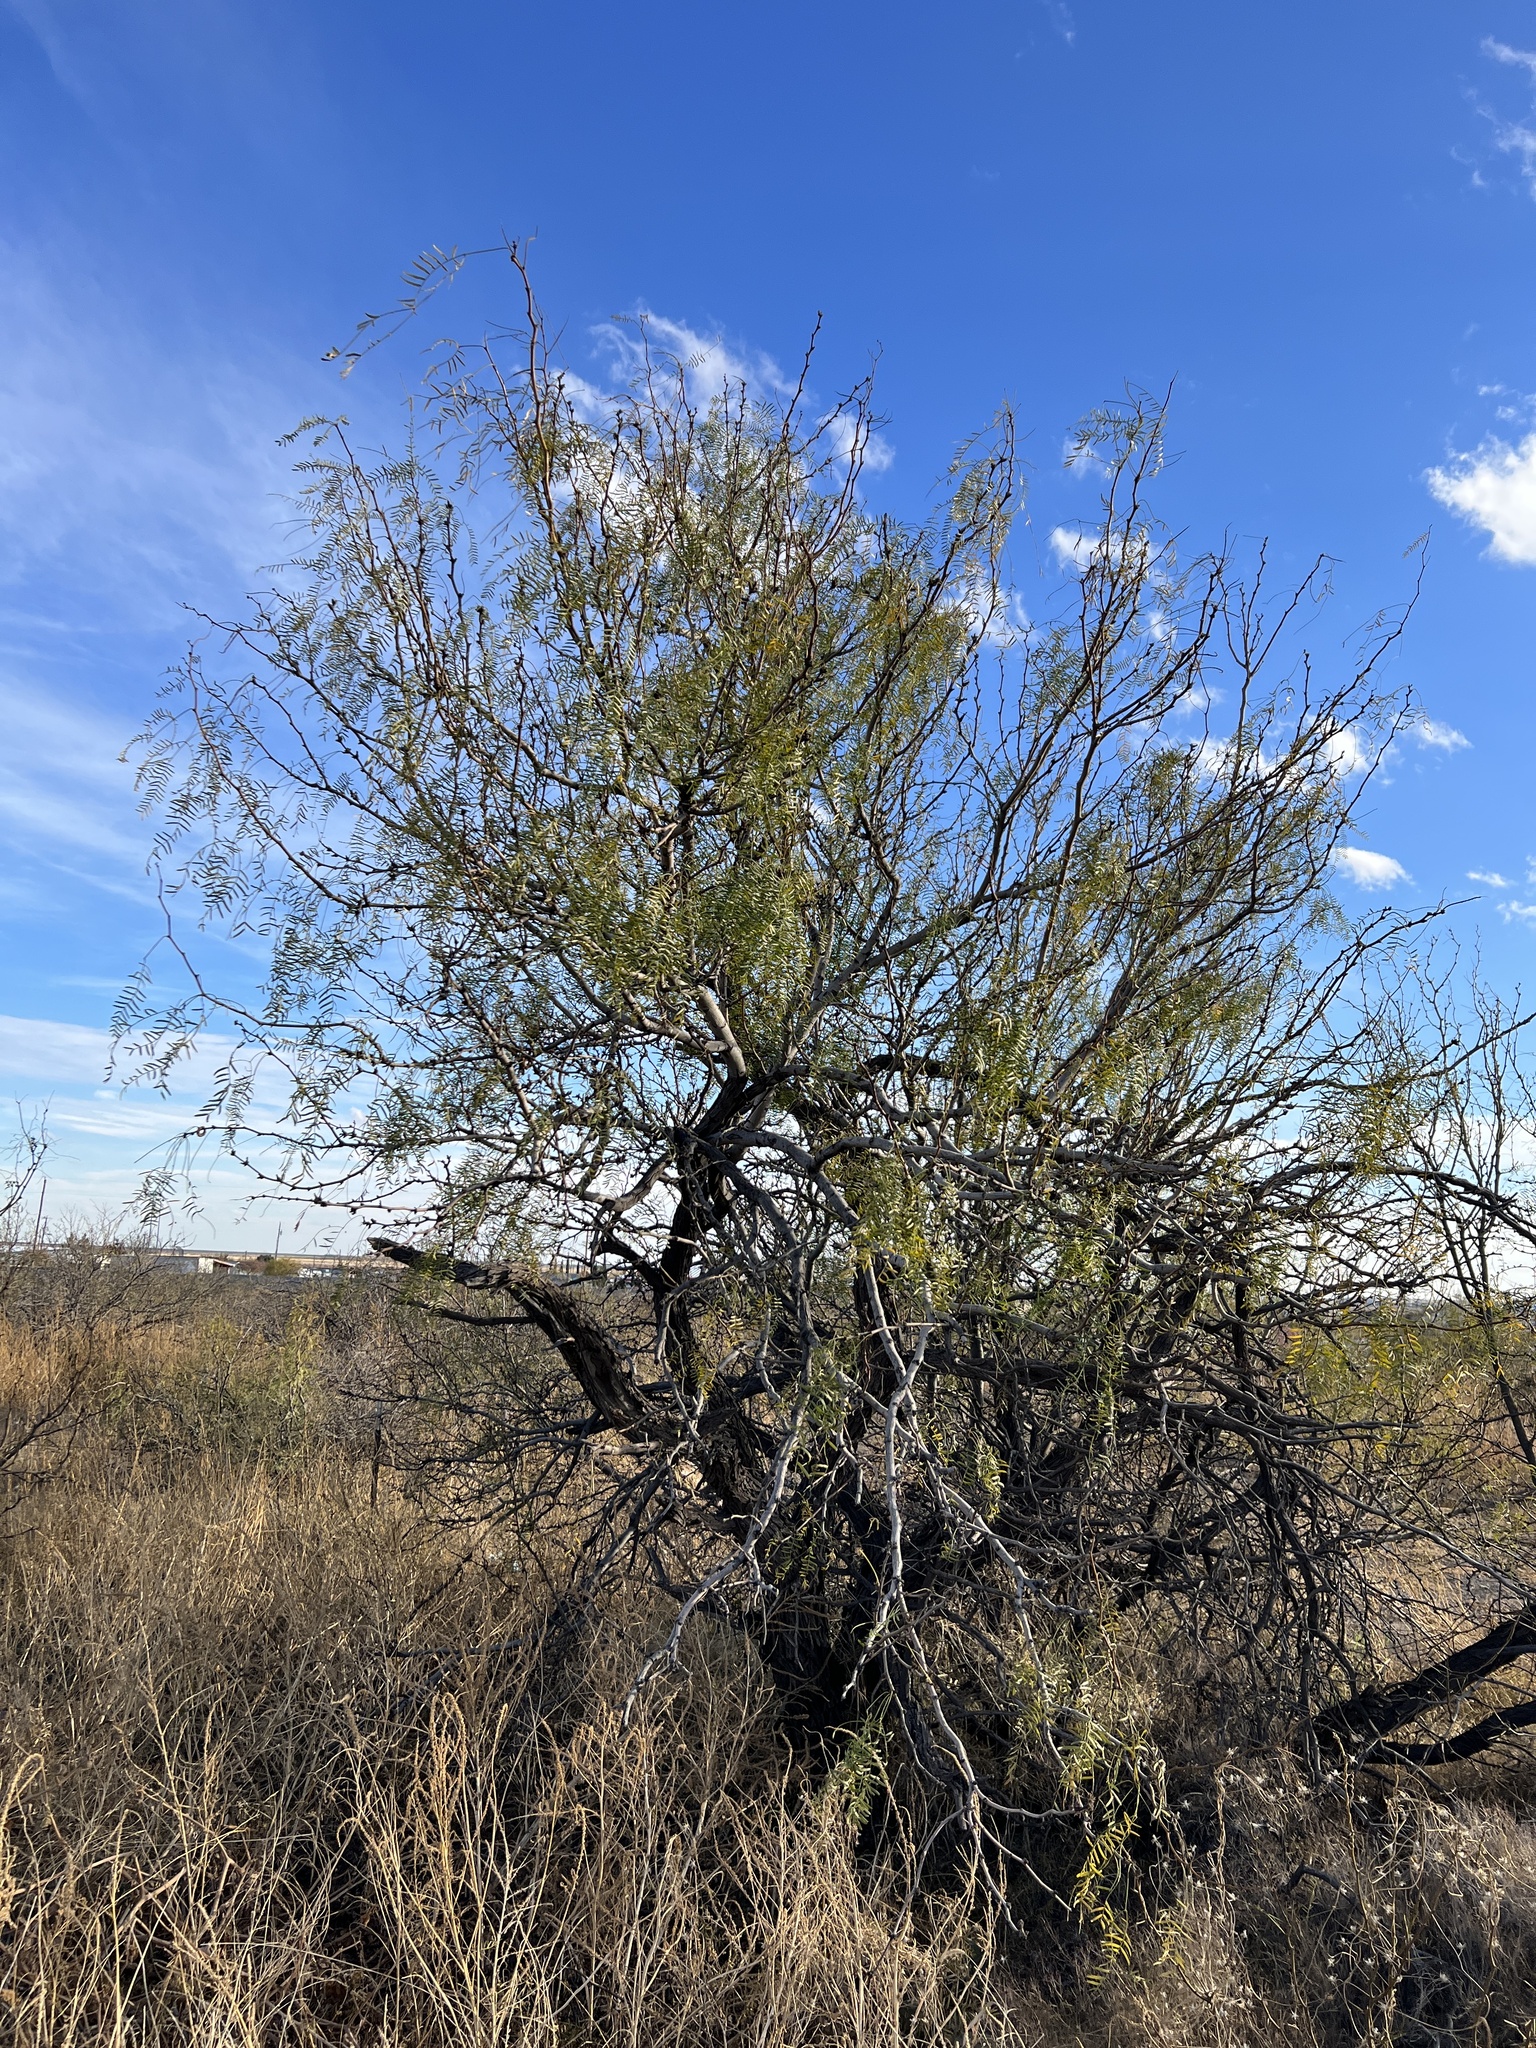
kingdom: Plantae
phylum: Tracheophyta
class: Magnoliopsida
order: Fabales
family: Fabaceae
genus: Prosopis
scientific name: Prosopis glandulosa
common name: Honey mesquite
